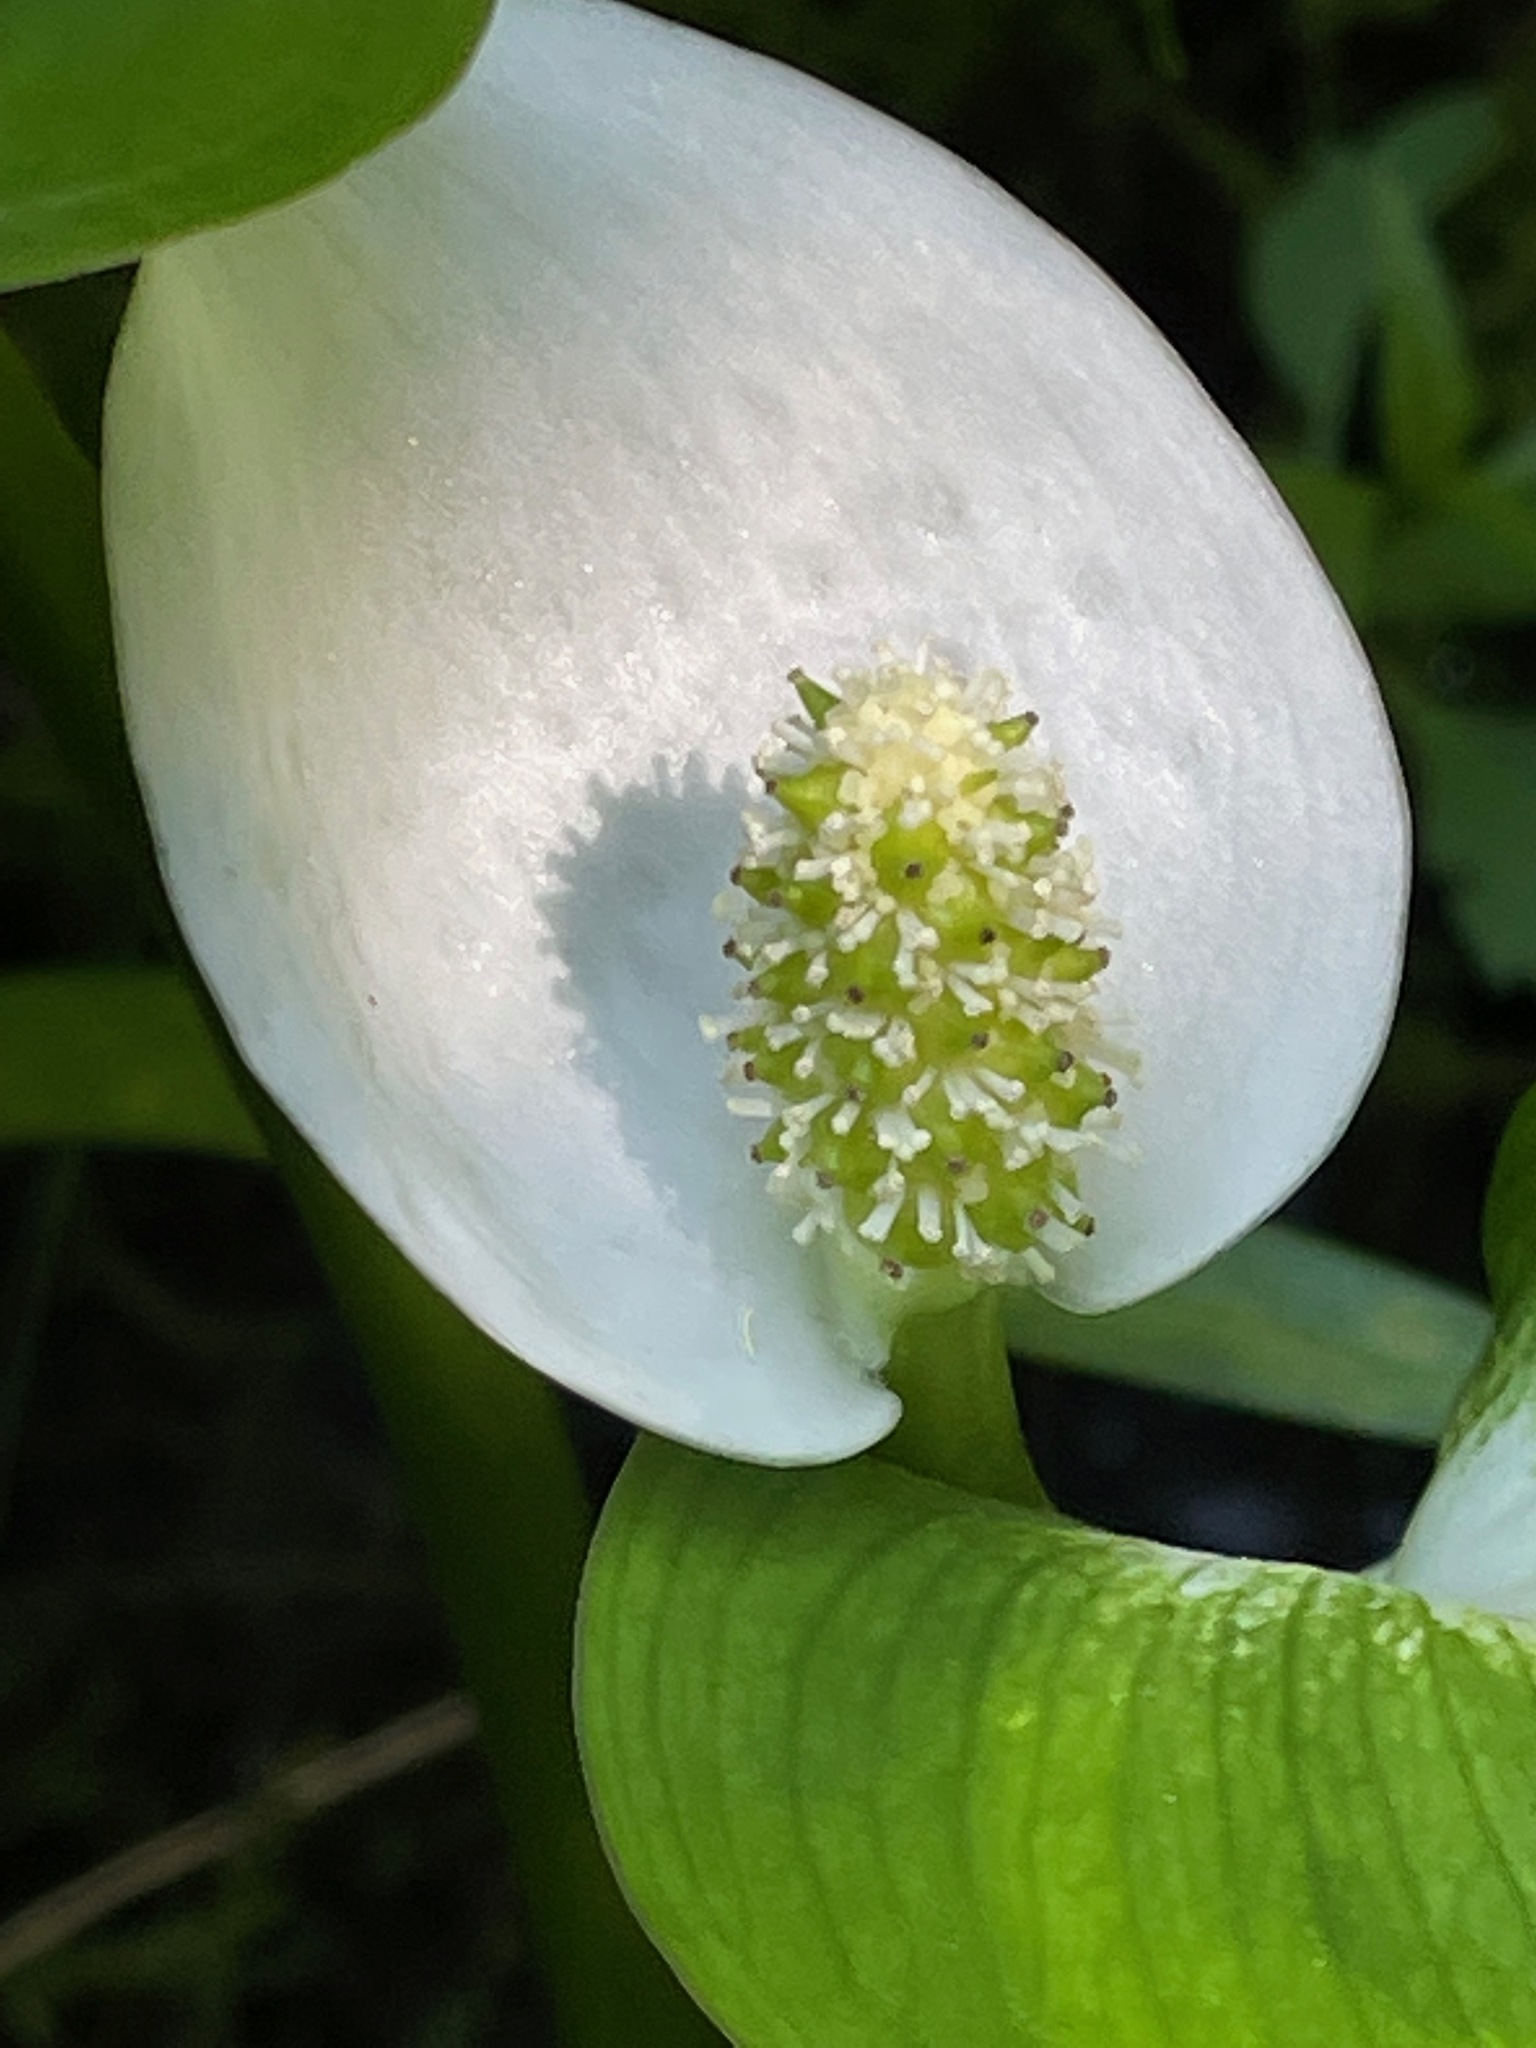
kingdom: Plantae
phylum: Tracheophyta
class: Liliopsida
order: Alismatales
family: Araceae
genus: Calla
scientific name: Calla palustris
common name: Bog arum
